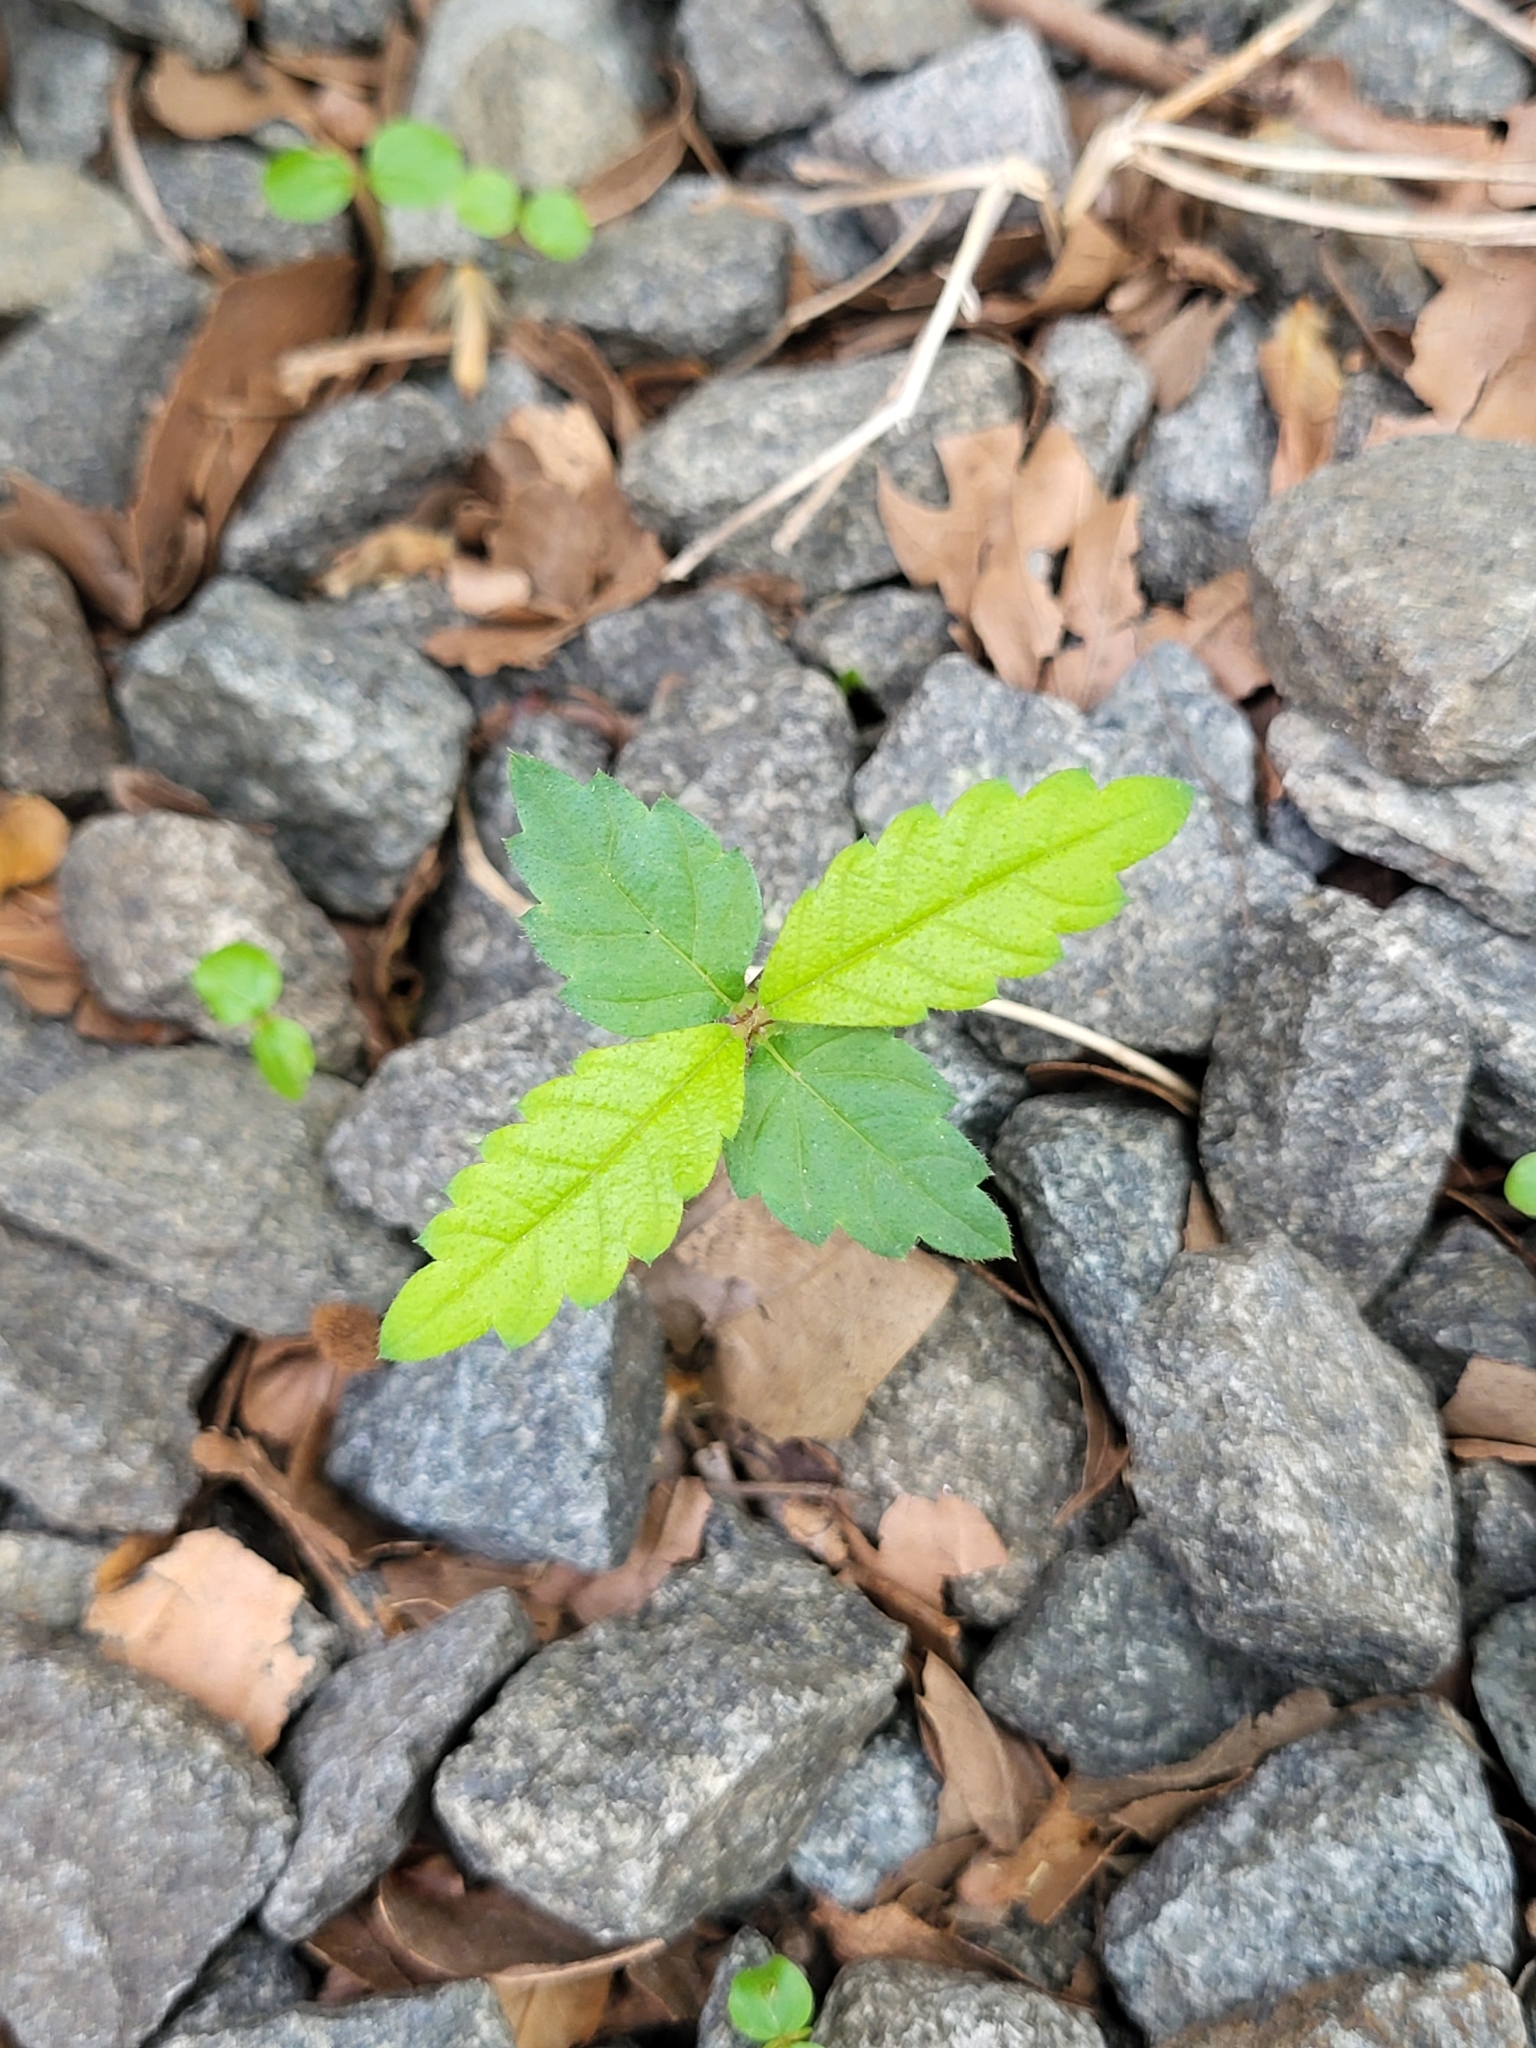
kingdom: Plantae
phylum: Tracheophyta
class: Magnoliopsida
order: Rosales
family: Ulmaceae
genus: Zelkova
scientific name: Zelkova serrata
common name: Japanese zelkova
